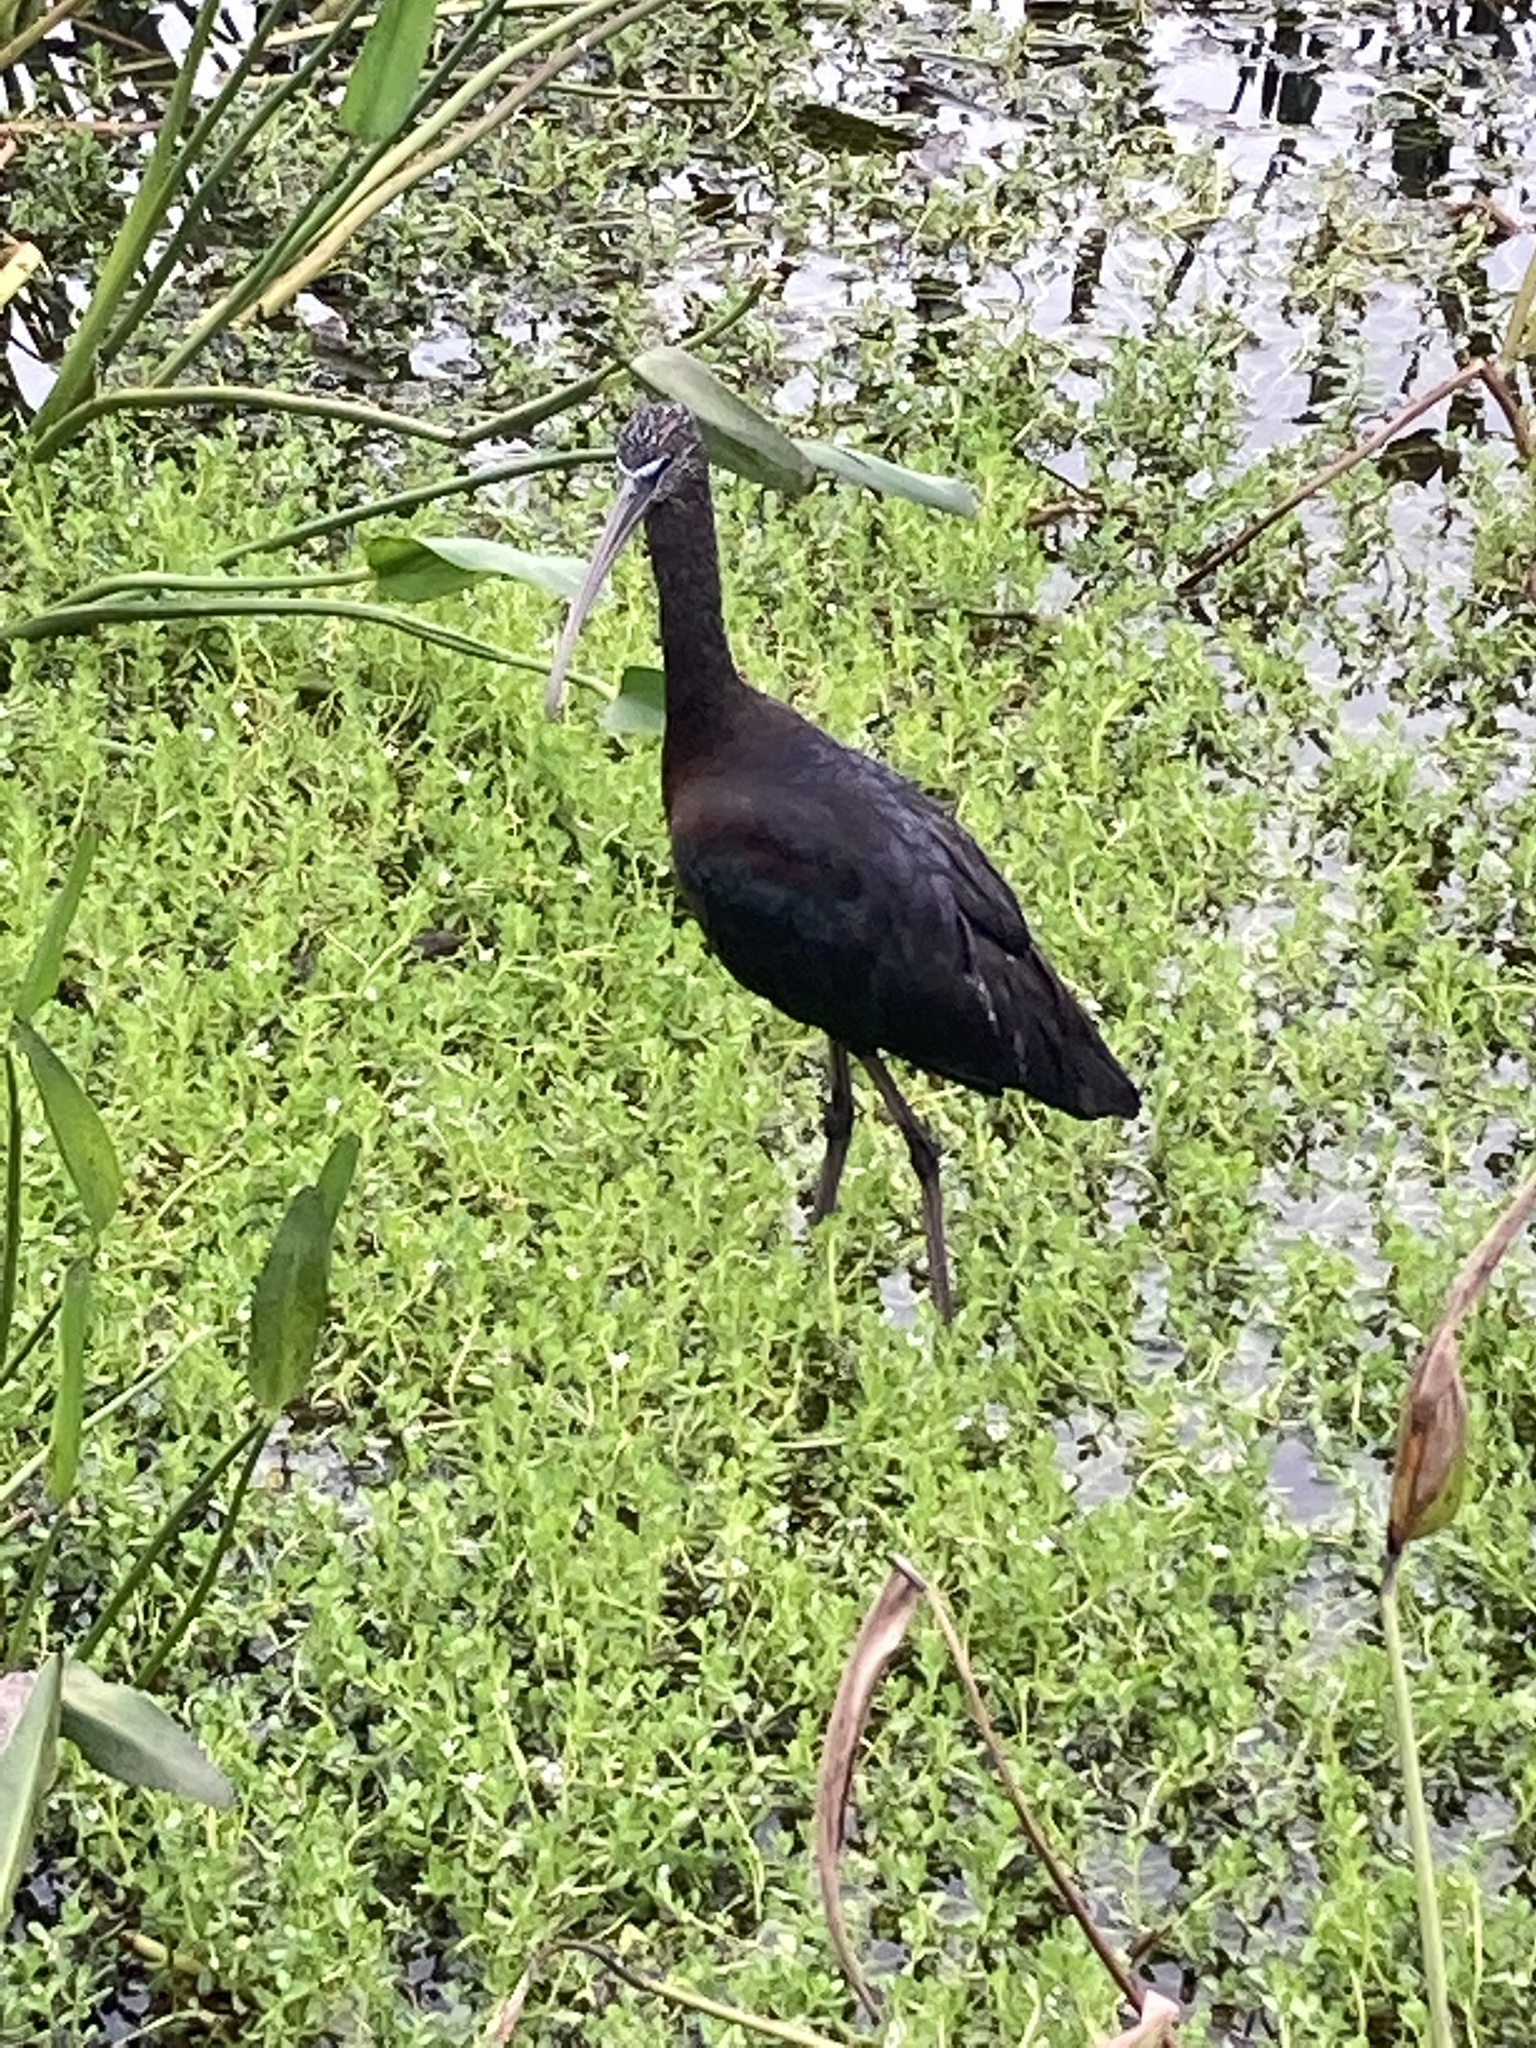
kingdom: Animalia
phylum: Chordata
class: Aves
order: Pelecaniformes
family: Threskiornithidae
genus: Plegadis
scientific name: Plegadis falcinellus
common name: Glossy ibis
